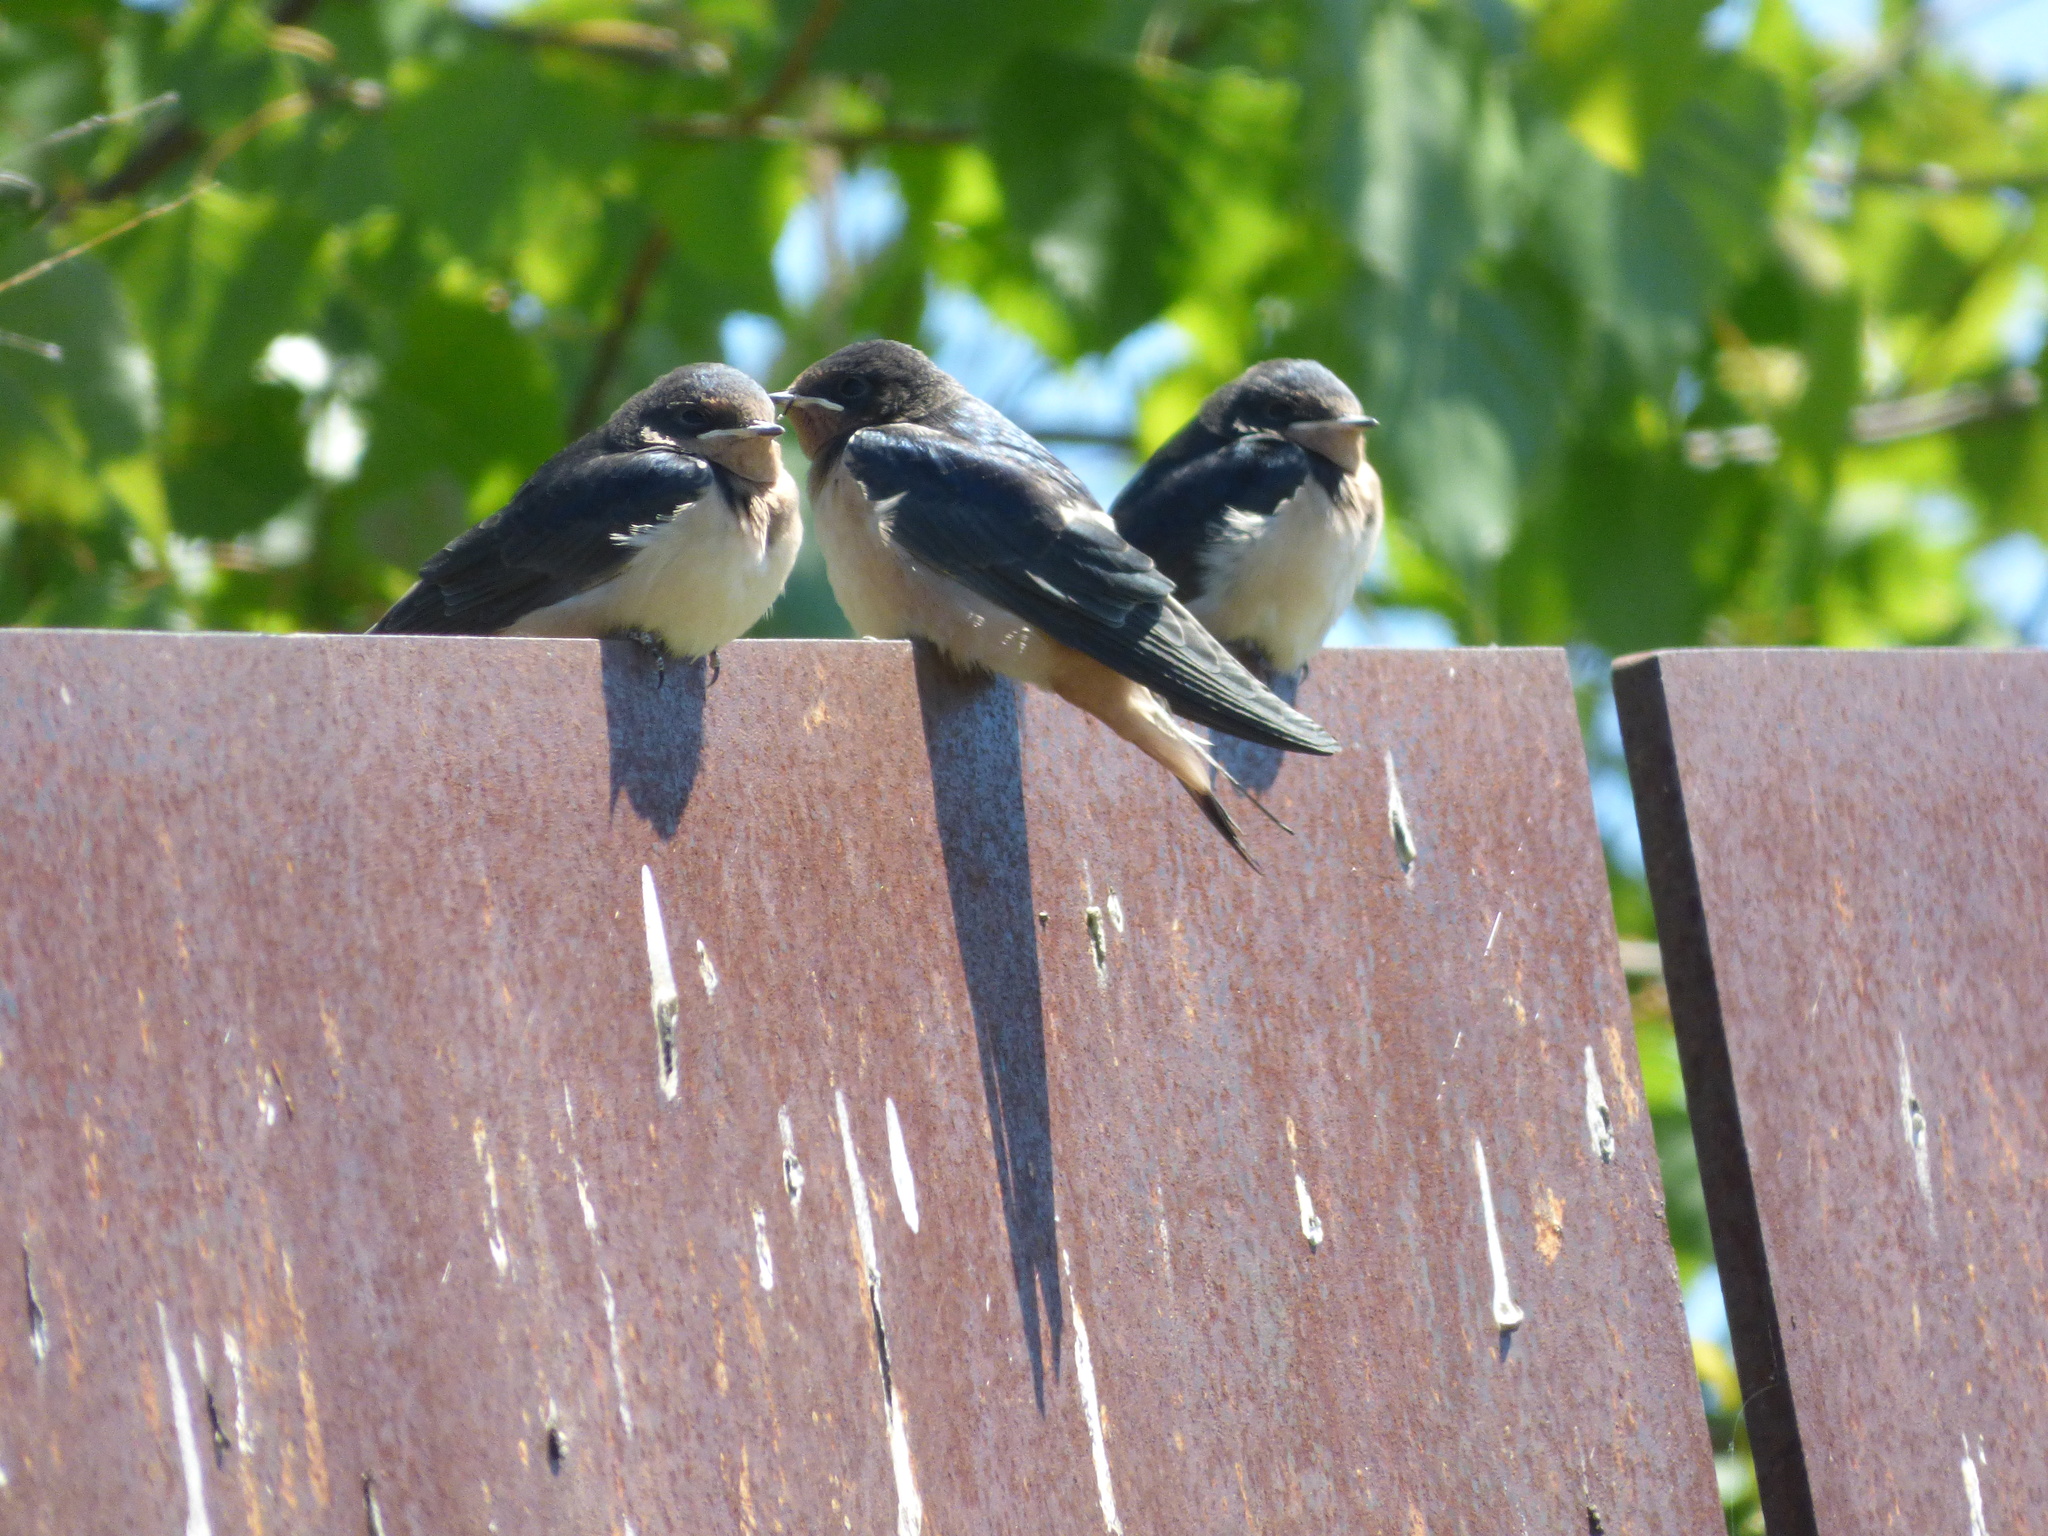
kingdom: Animalia
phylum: Chordata
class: Aves
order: Passeriformes
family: Hirundinidae
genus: Hirundo
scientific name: Hirundo rustica
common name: Barn swallow
